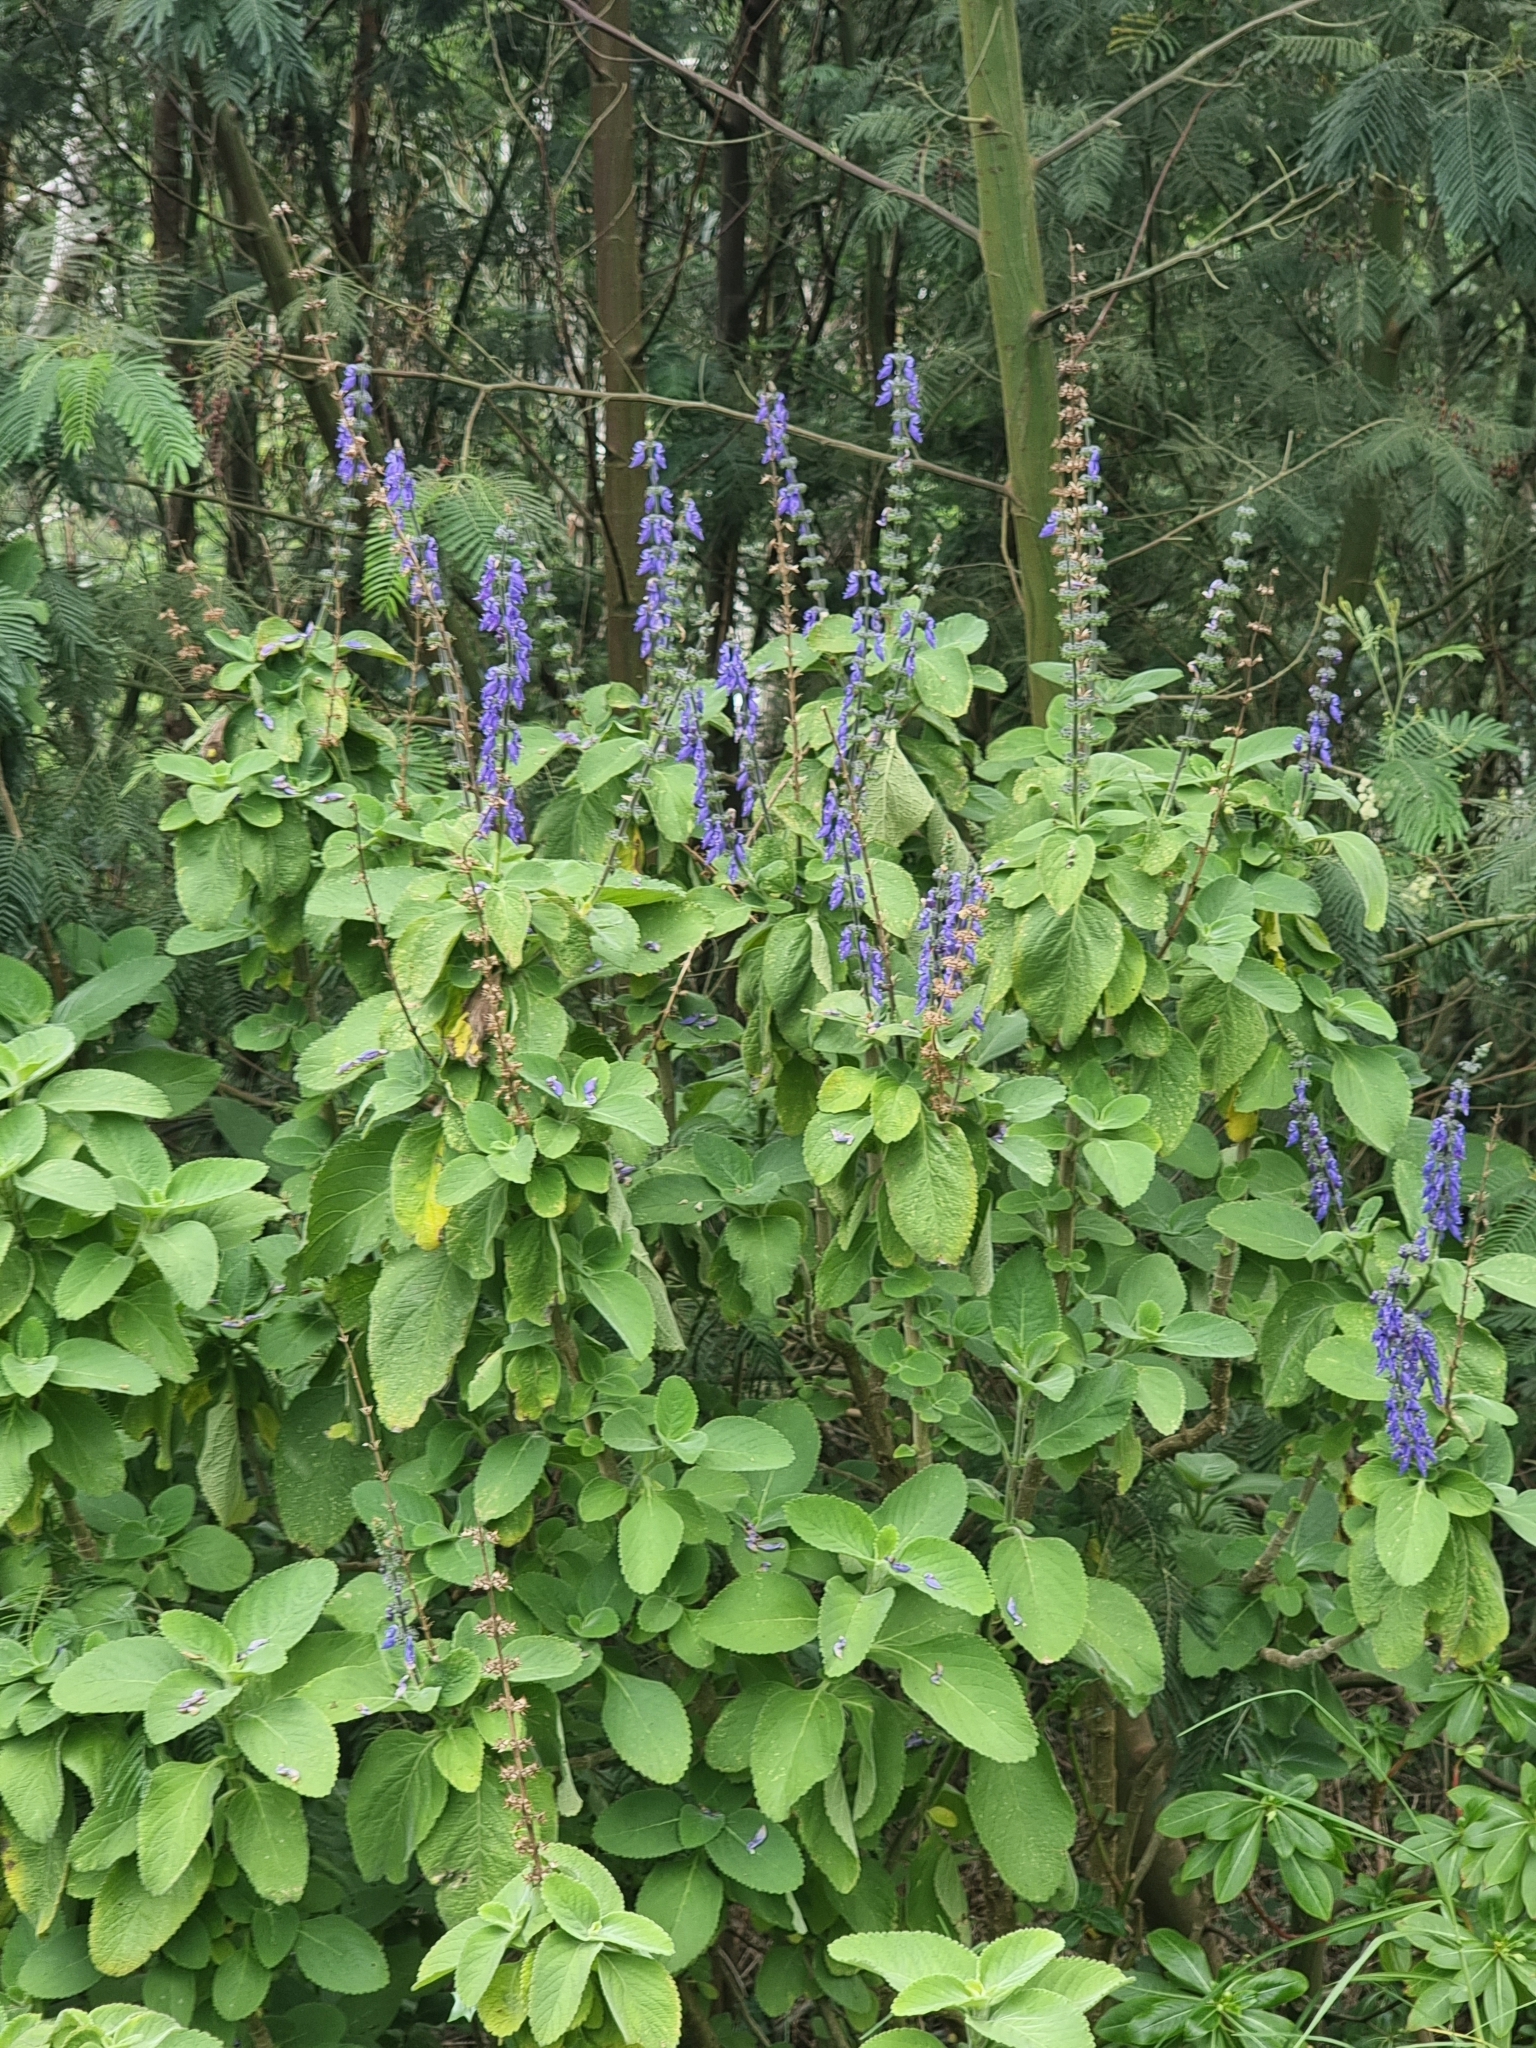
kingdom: Plantae
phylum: Tracheophyta
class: Magnoliopsida
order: Lamiales
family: Lamiaceae
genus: Coleus
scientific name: Coleus barbatus
